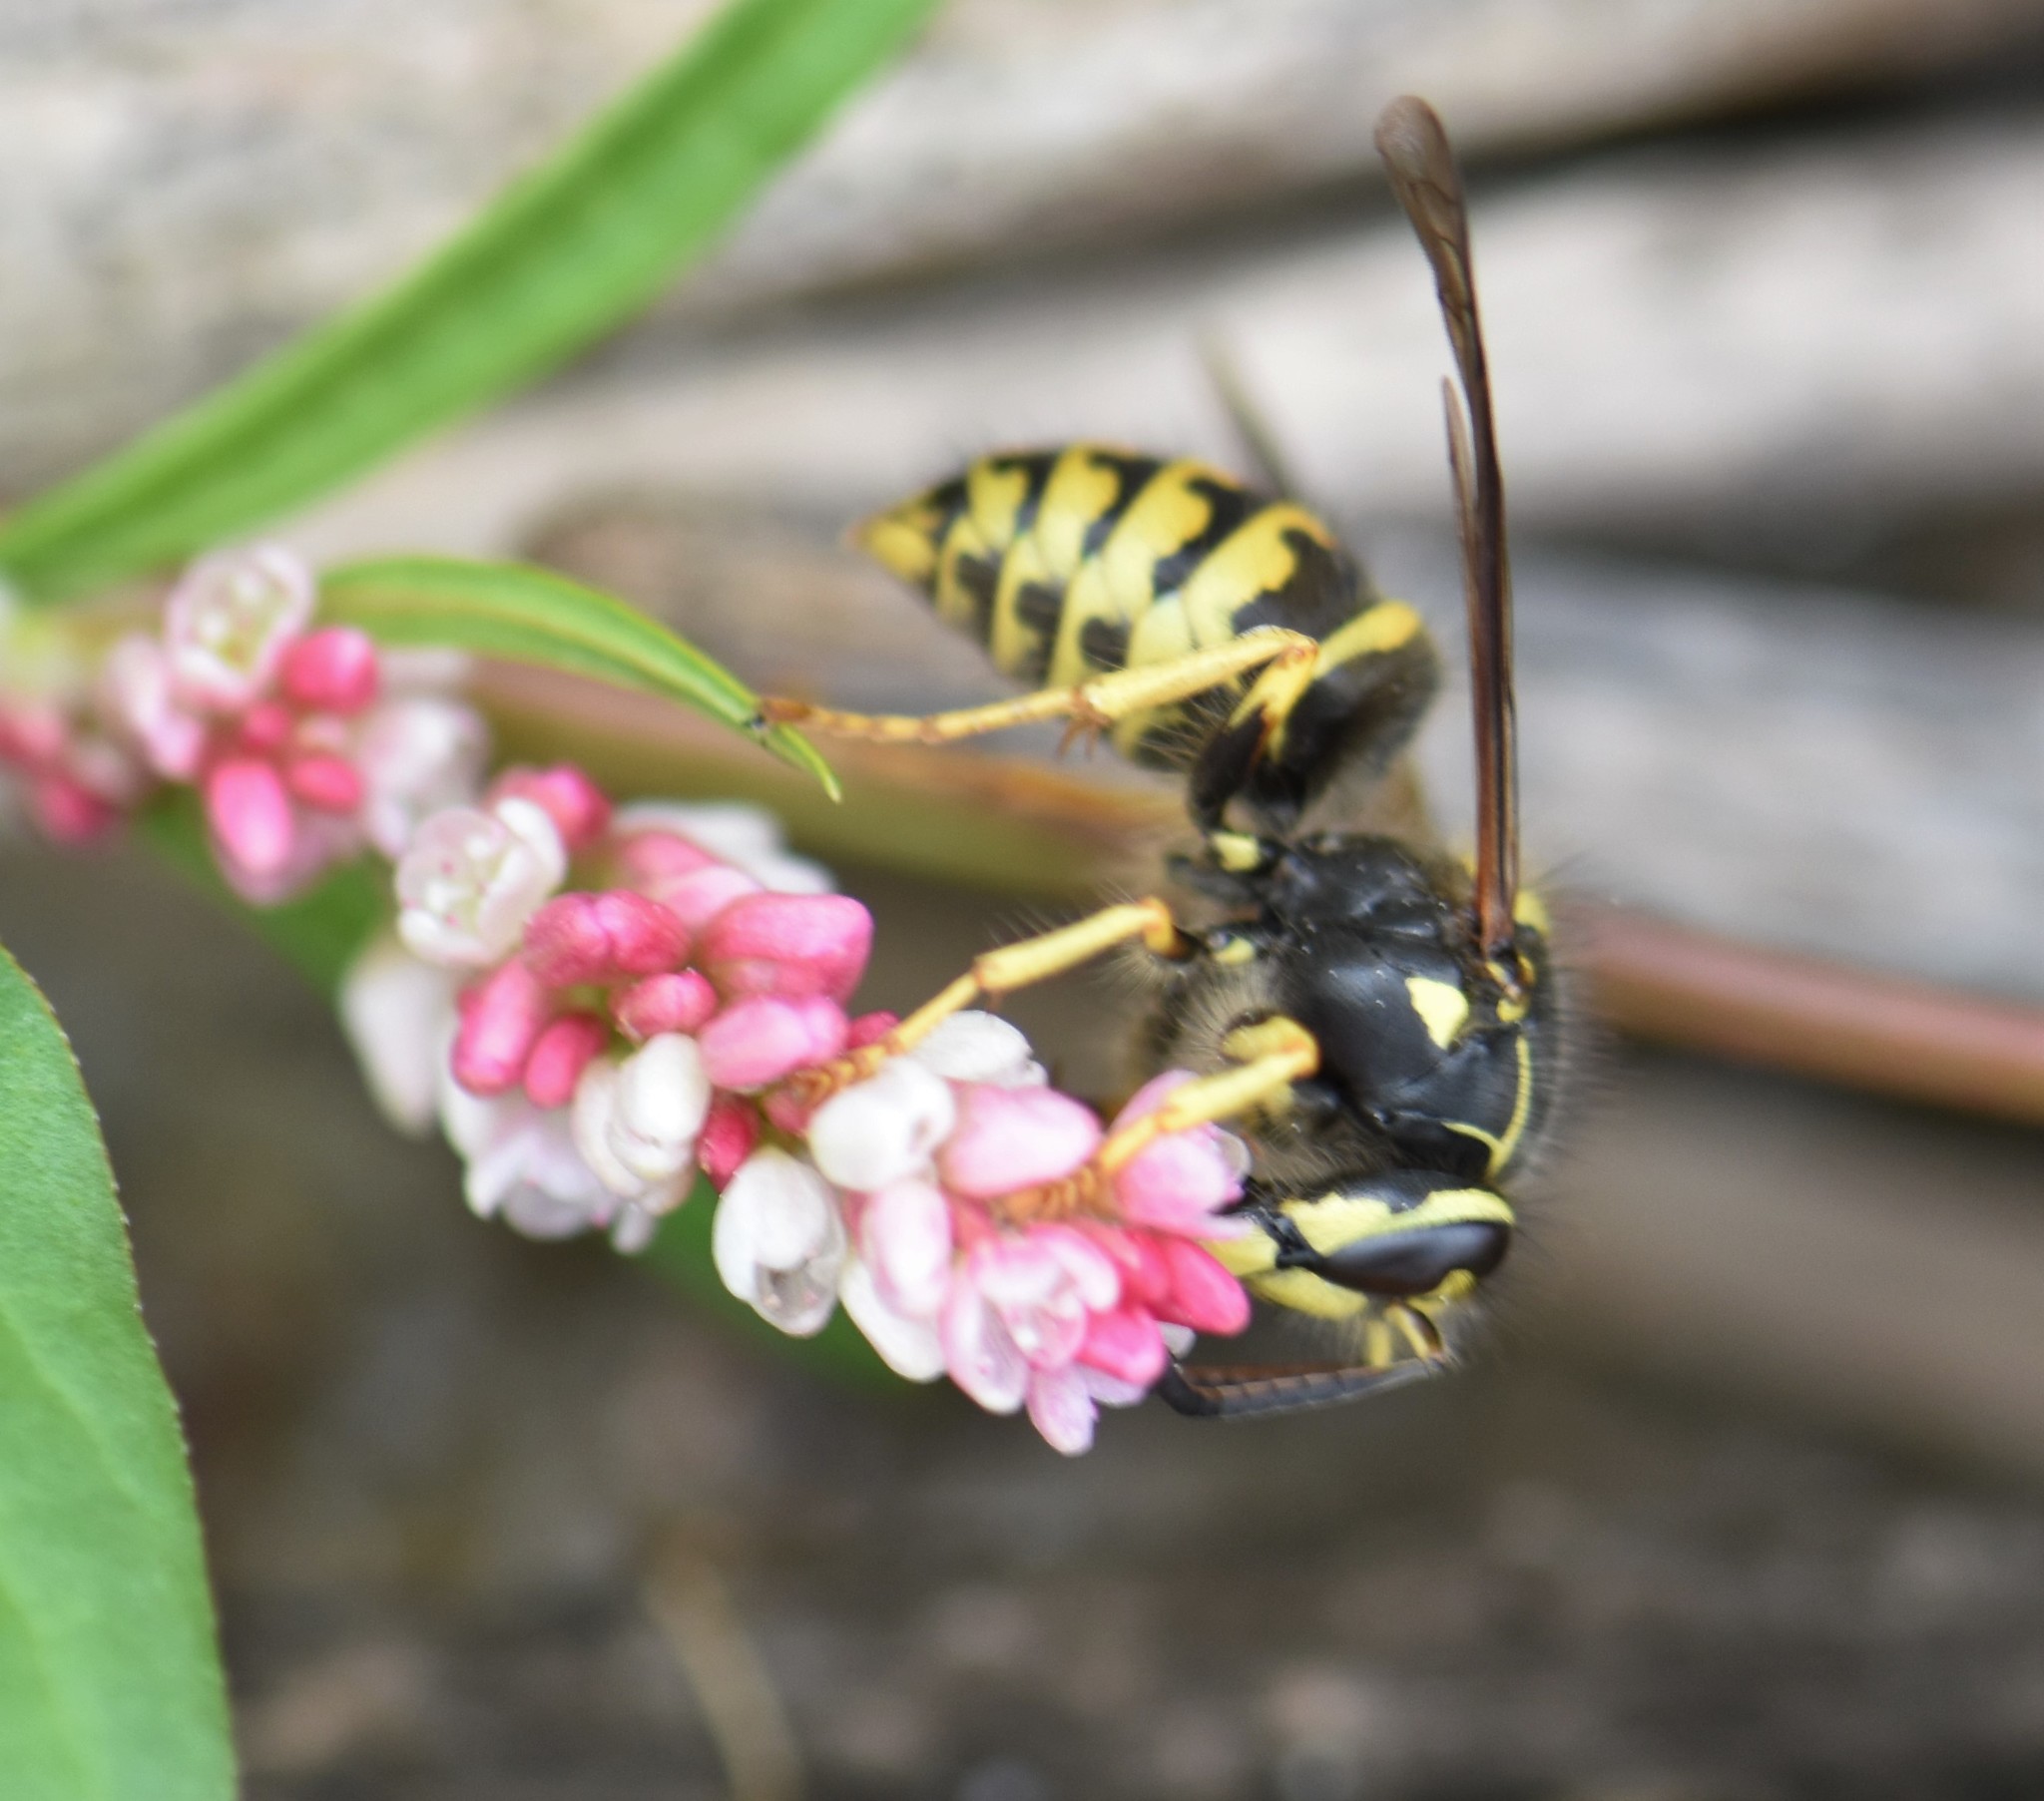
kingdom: Animalia
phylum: Arthropoda
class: Insecta
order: Hymenoptera
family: Vespidae
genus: Dolichovespula
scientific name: Dolichovespula arenaria
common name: Aerial yellowjacket
